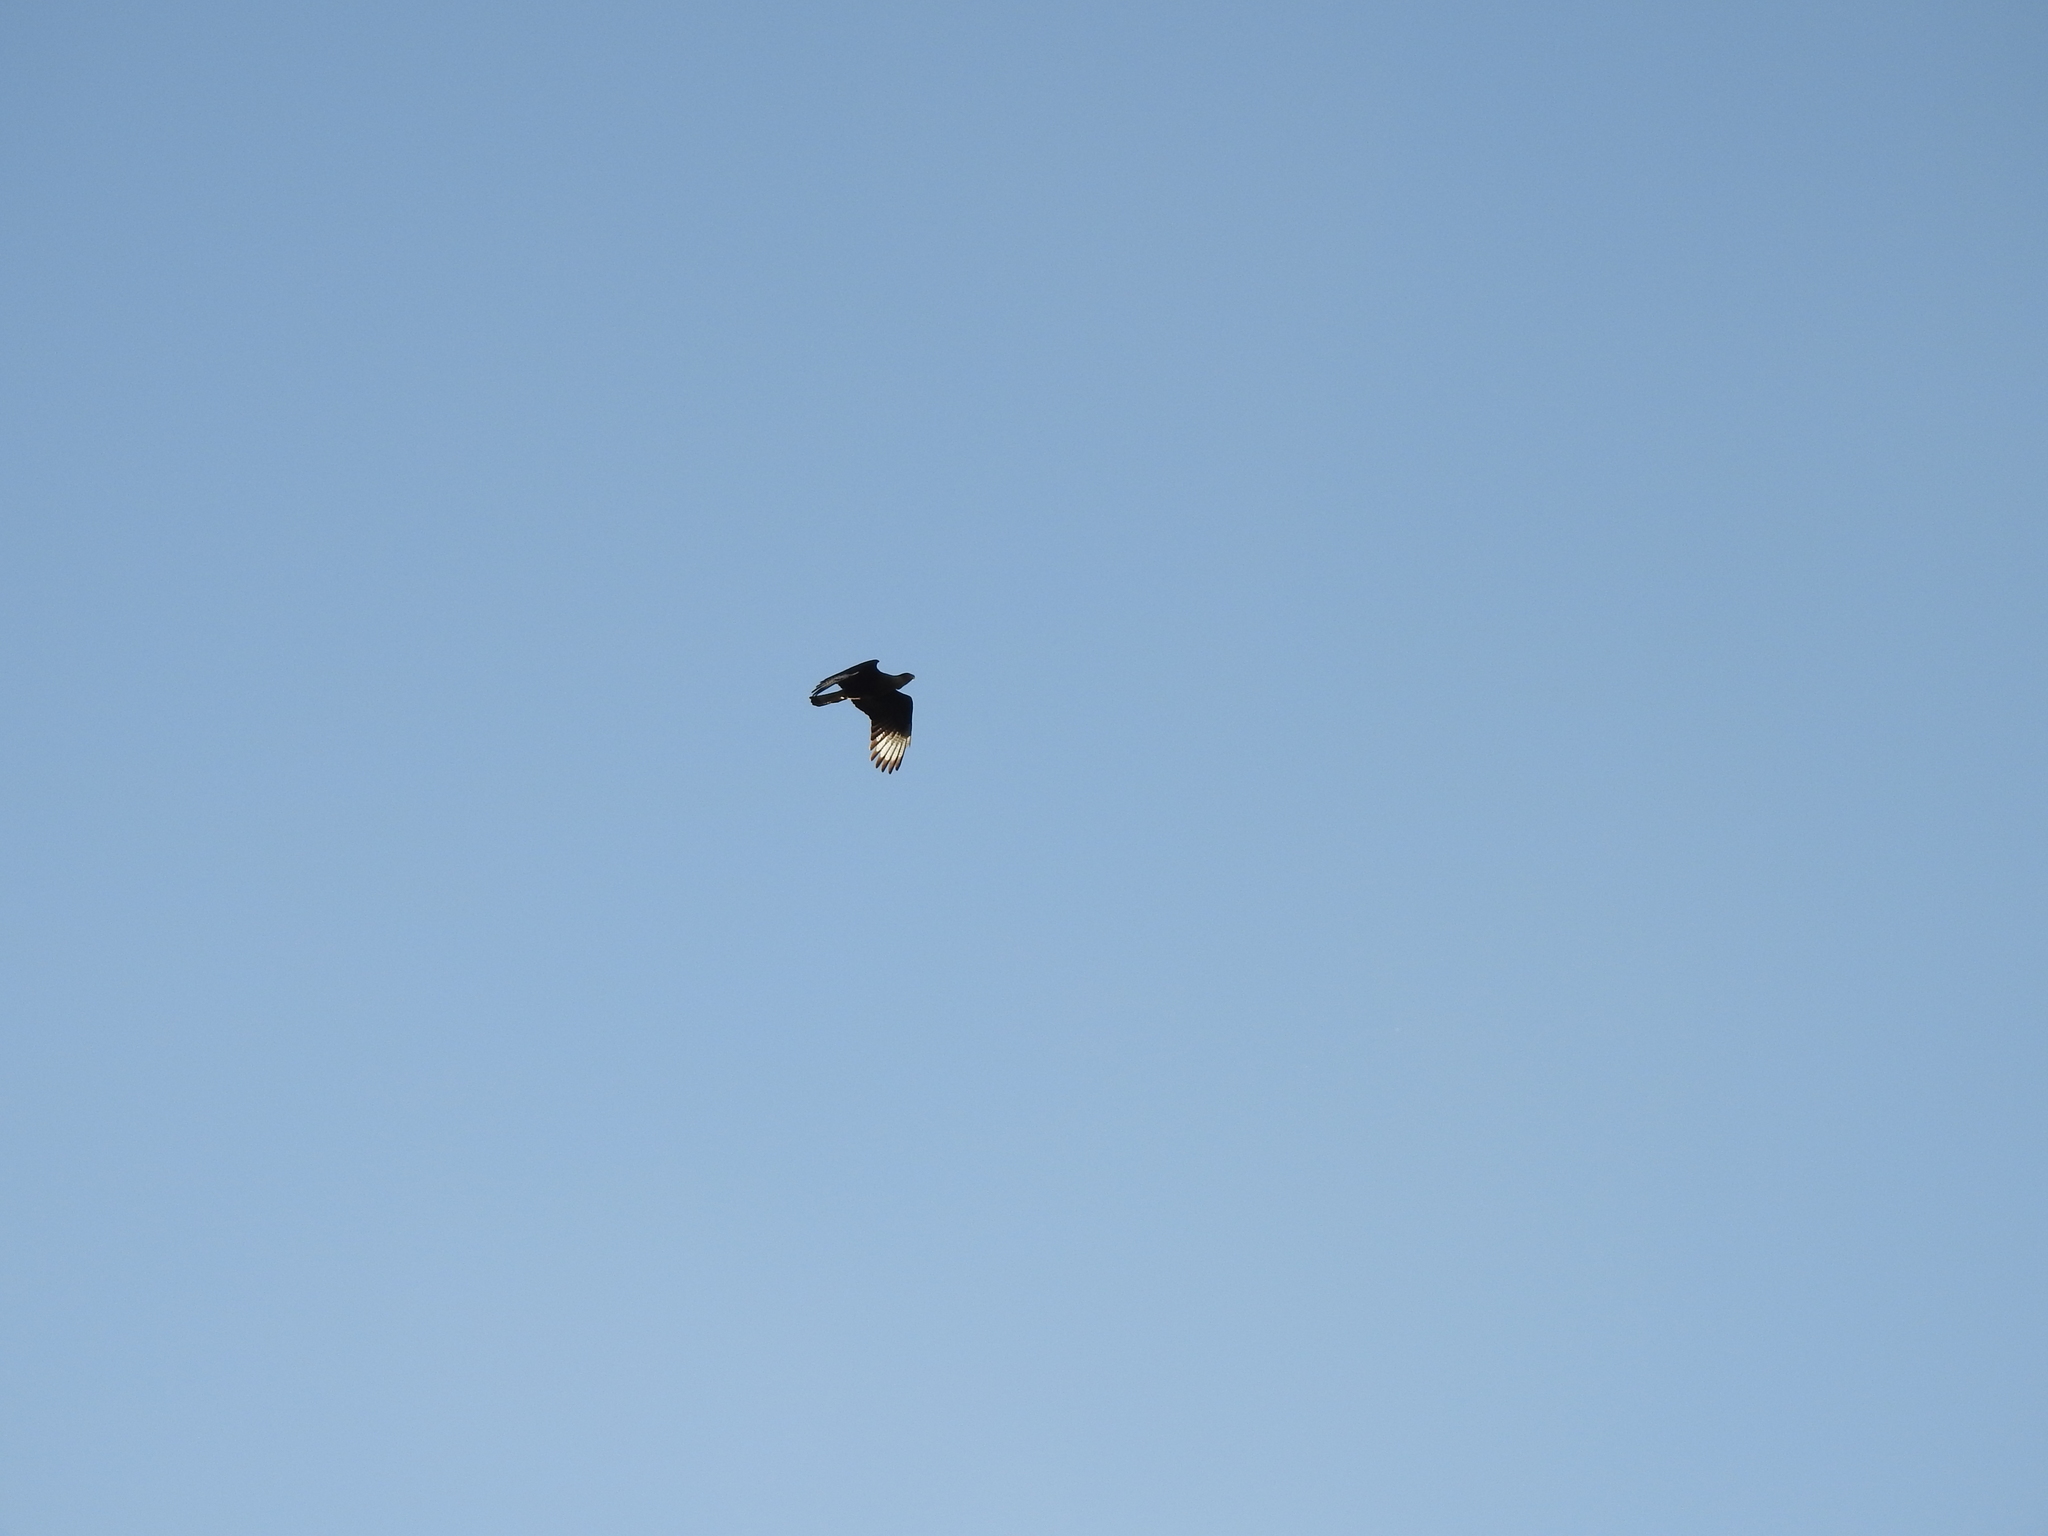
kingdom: Animalia
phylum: Chordata
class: Aves
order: Falconiformes
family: Falconidae
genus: Caracara
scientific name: Caracara plancus
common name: Southern caracara
